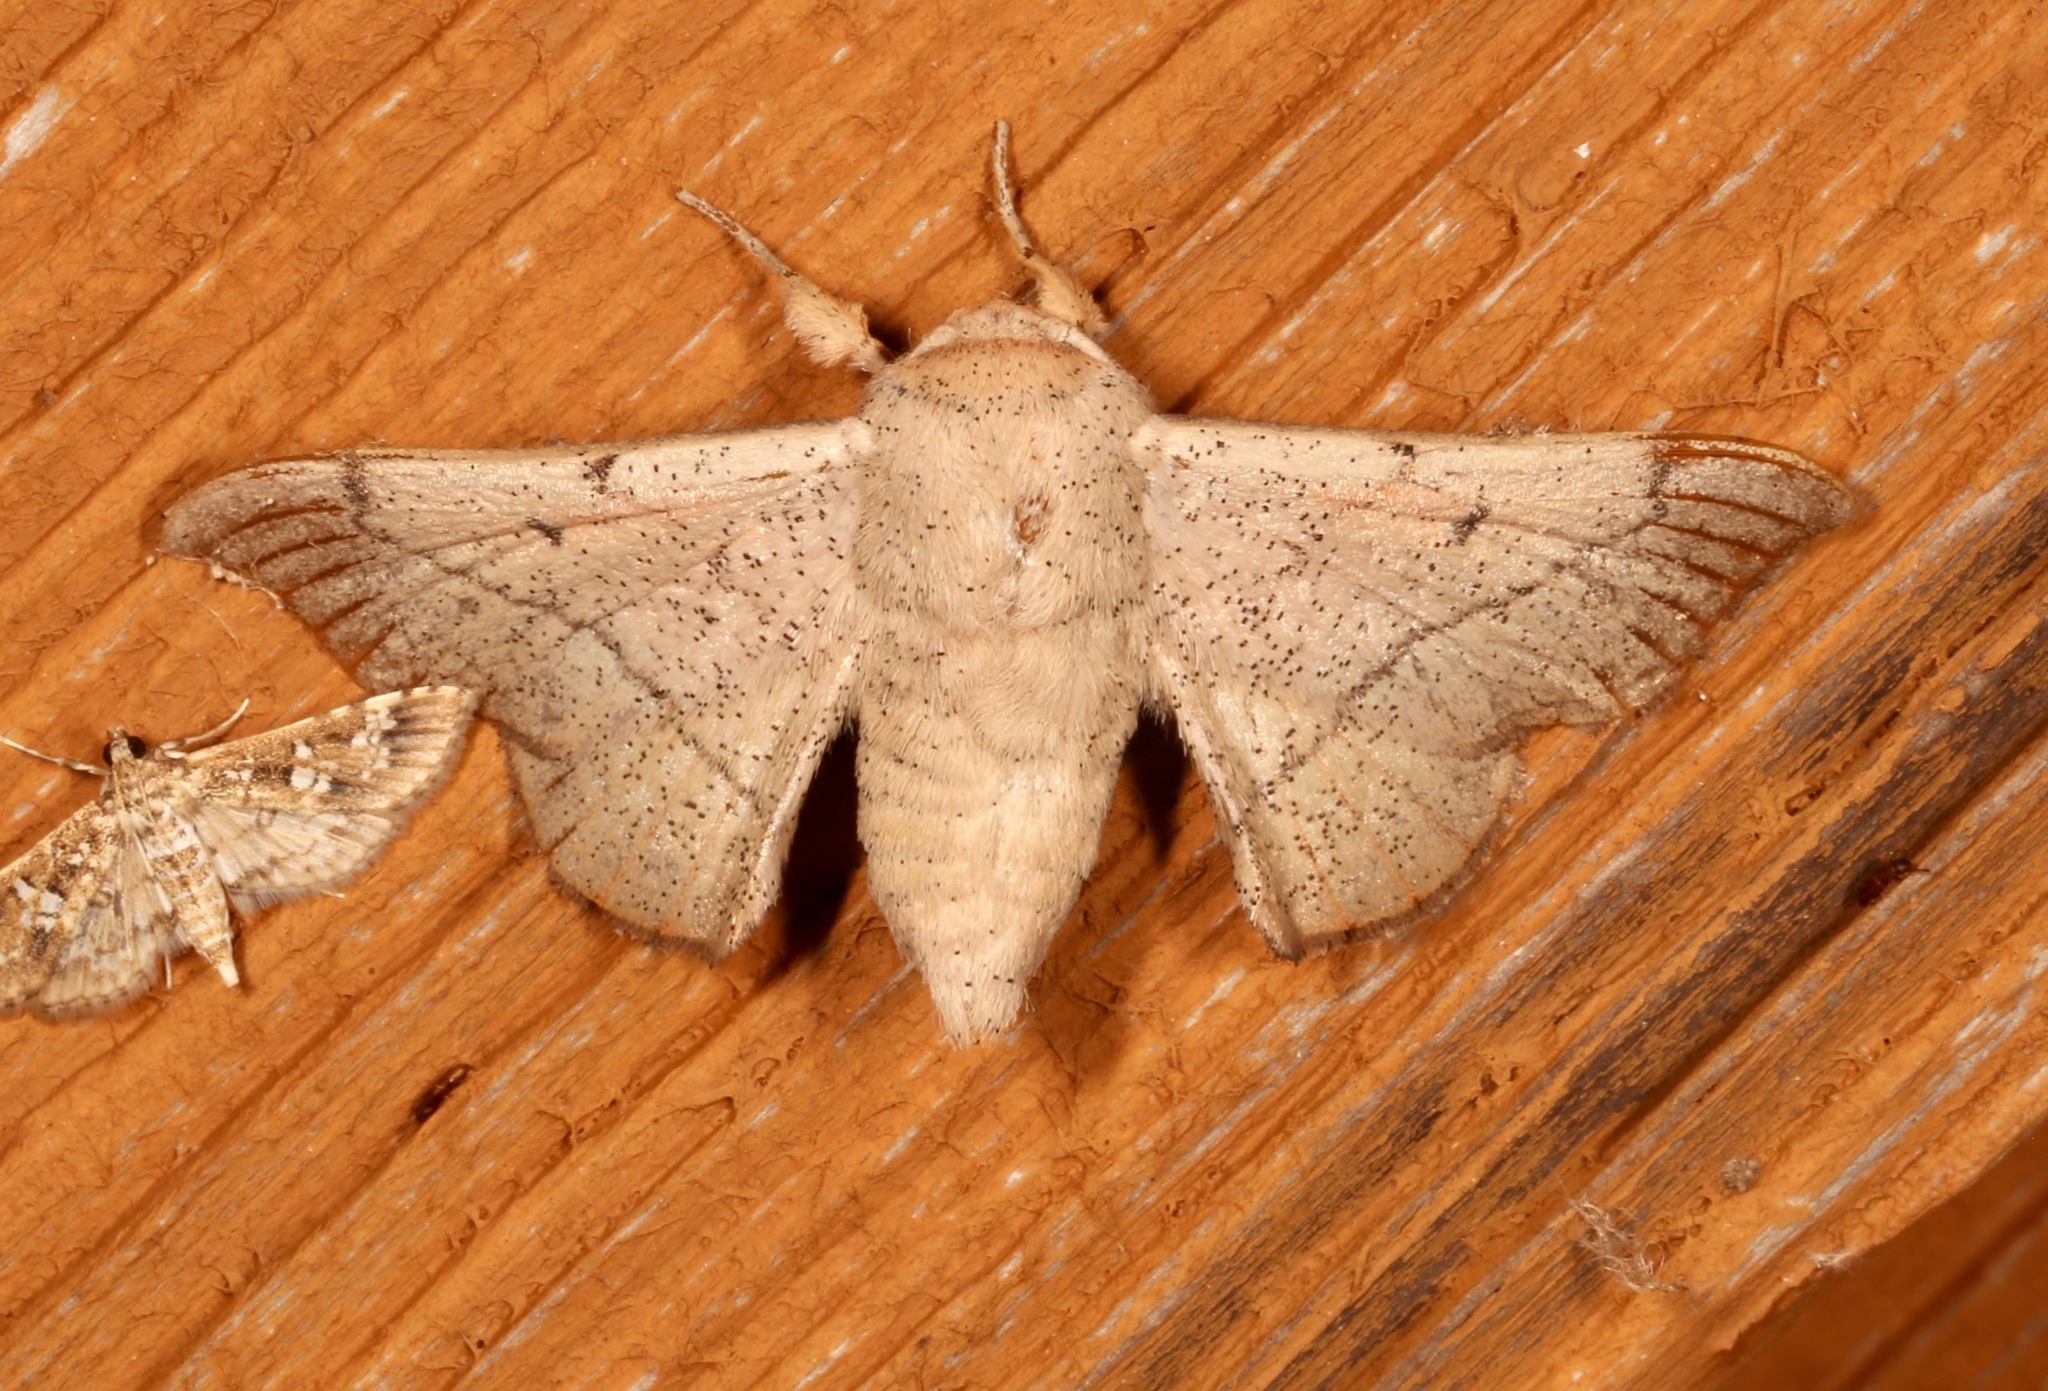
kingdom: Animalia
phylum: Arthropoda
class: Insecta
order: Lepidoptera
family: Mimallonidae
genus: Cicinnus
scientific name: Cicinnus melsheimeri
